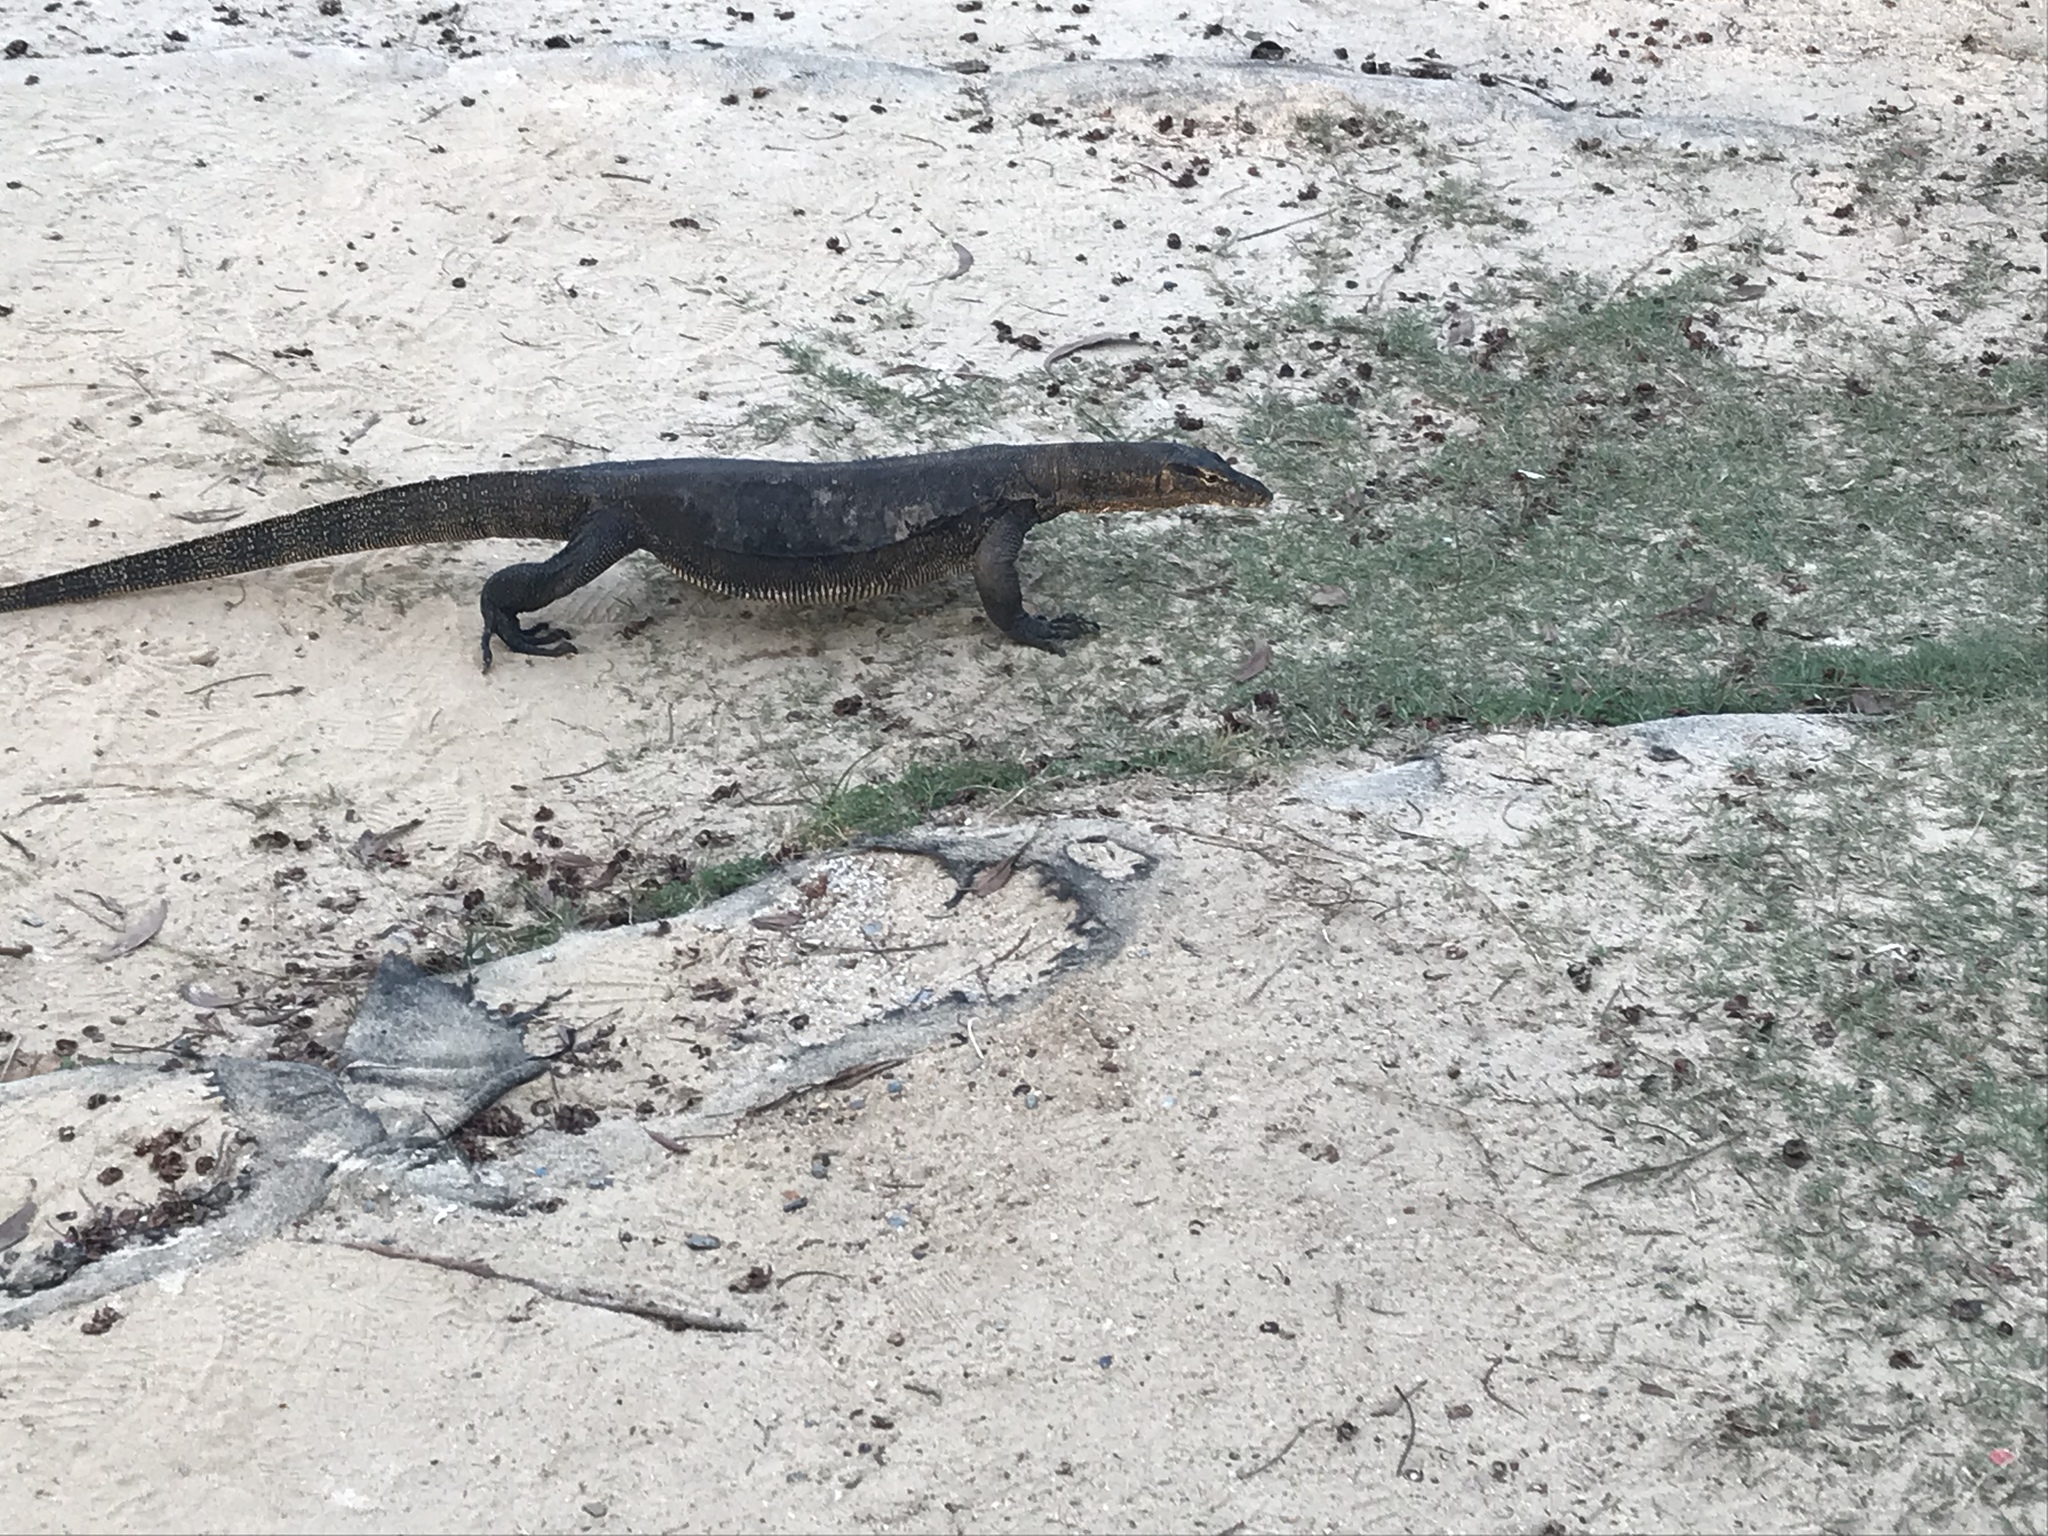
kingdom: Animalia
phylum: Chordata
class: Squamata
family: Varanidae
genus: Varanus
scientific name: Varanus salvator
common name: Common water monitor
